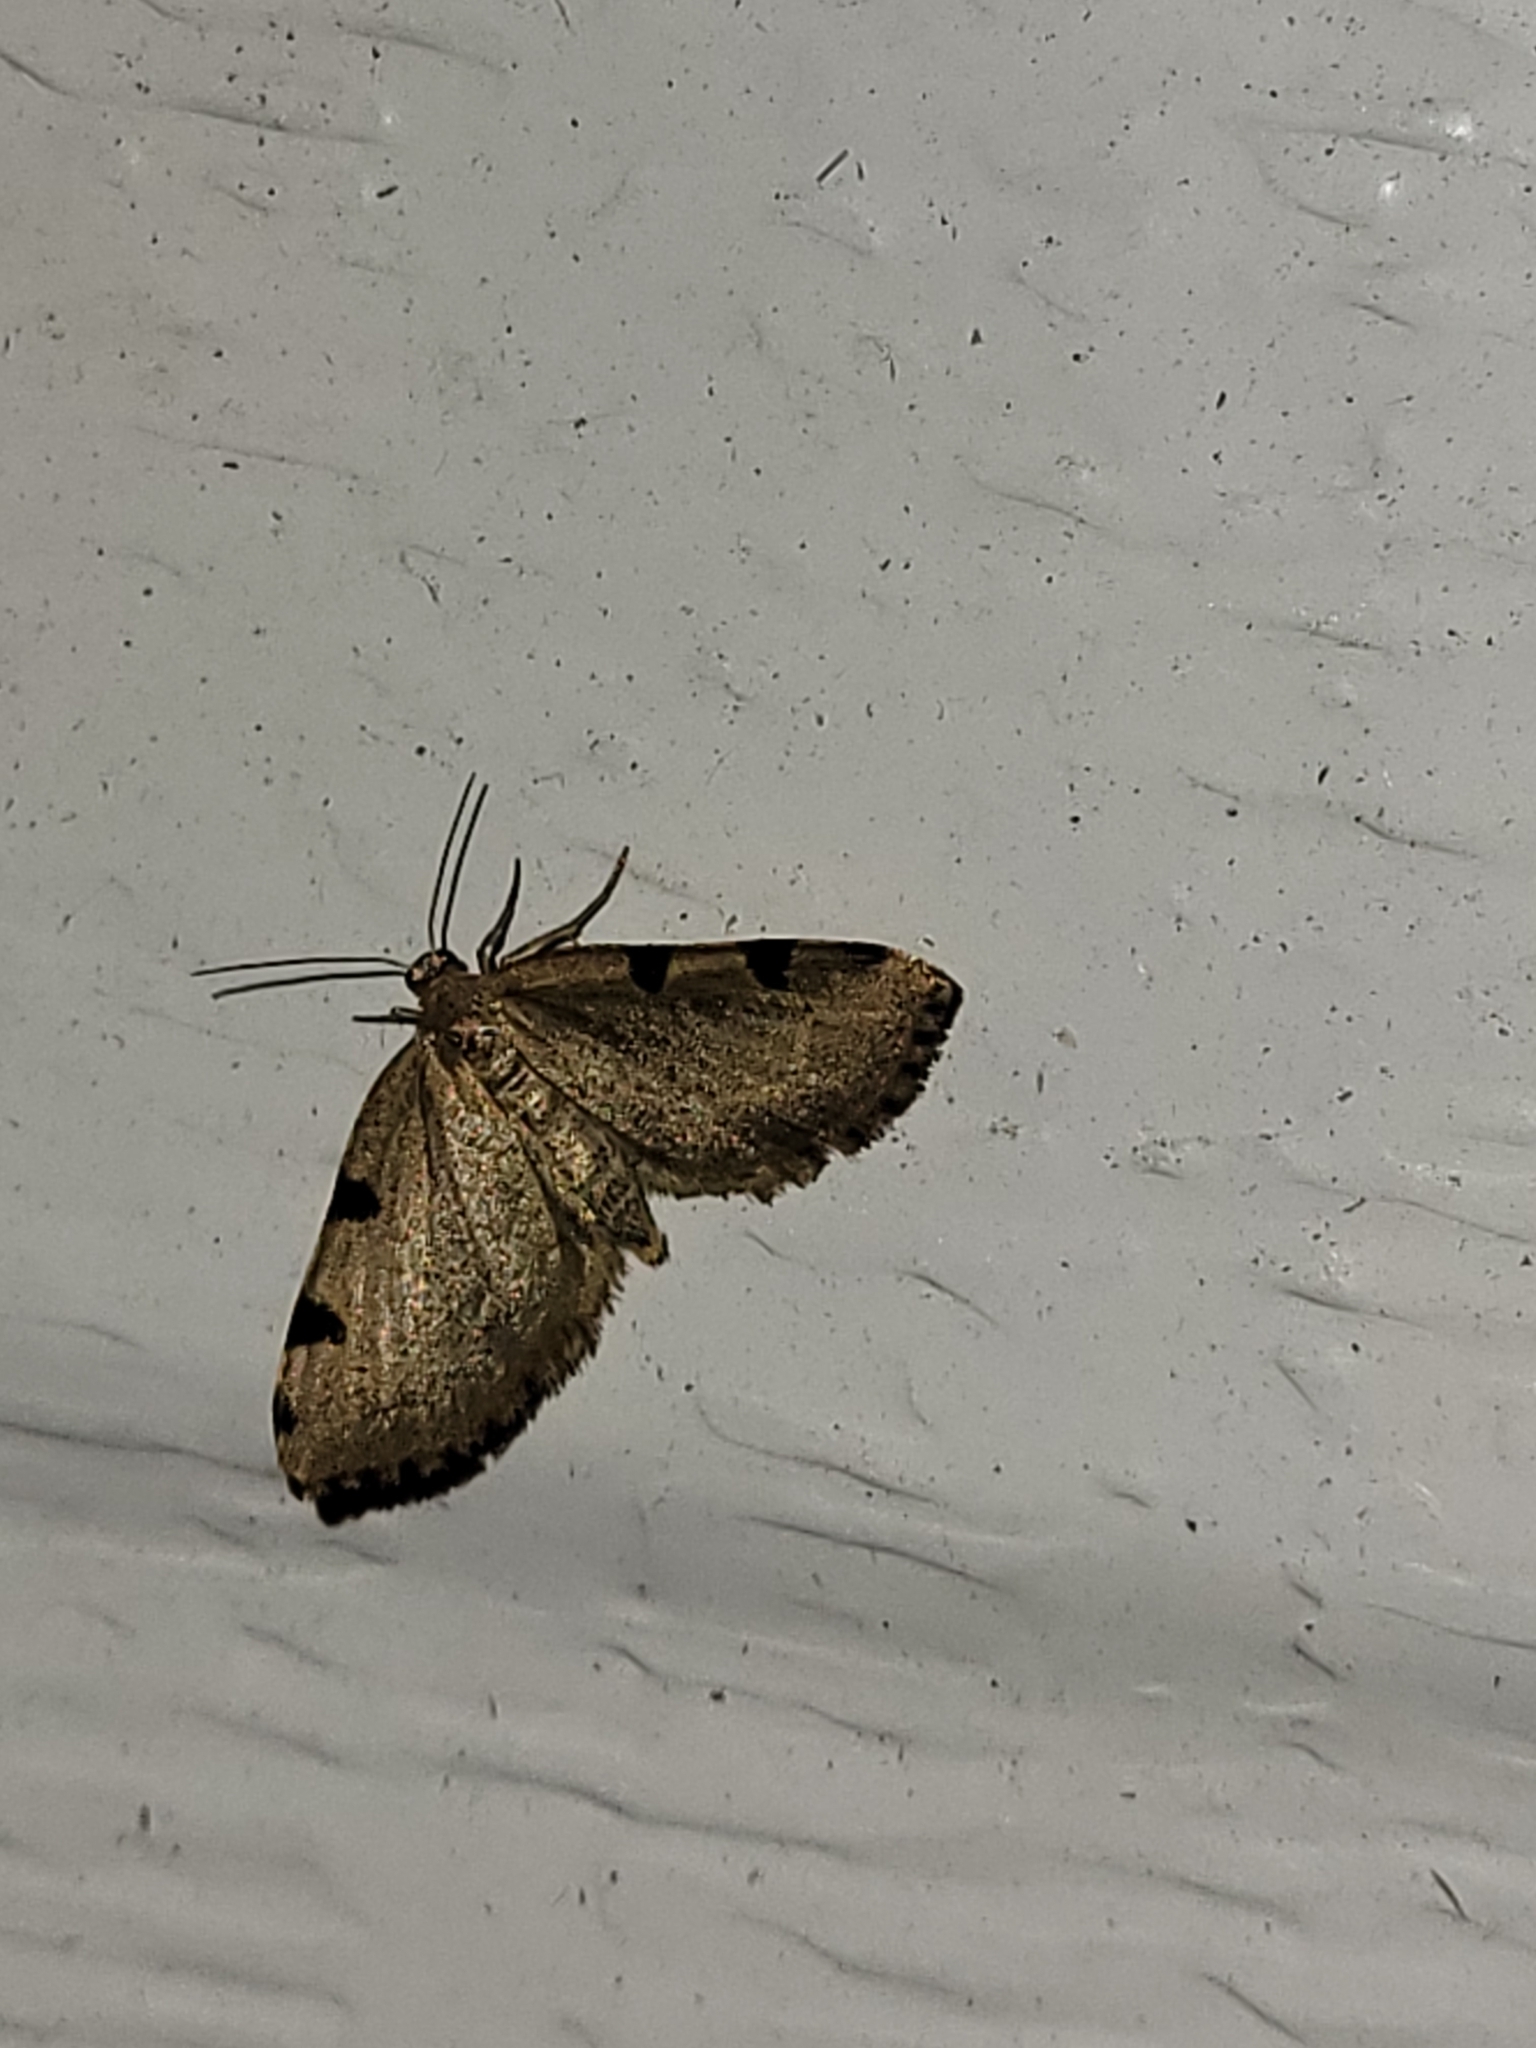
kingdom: Animalia
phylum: Arthropoda
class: Insecta
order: Lepidoptera
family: Geometridae
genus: Heterophleps
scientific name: Heterophleps triguttaria
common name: Three-spotted fillip
